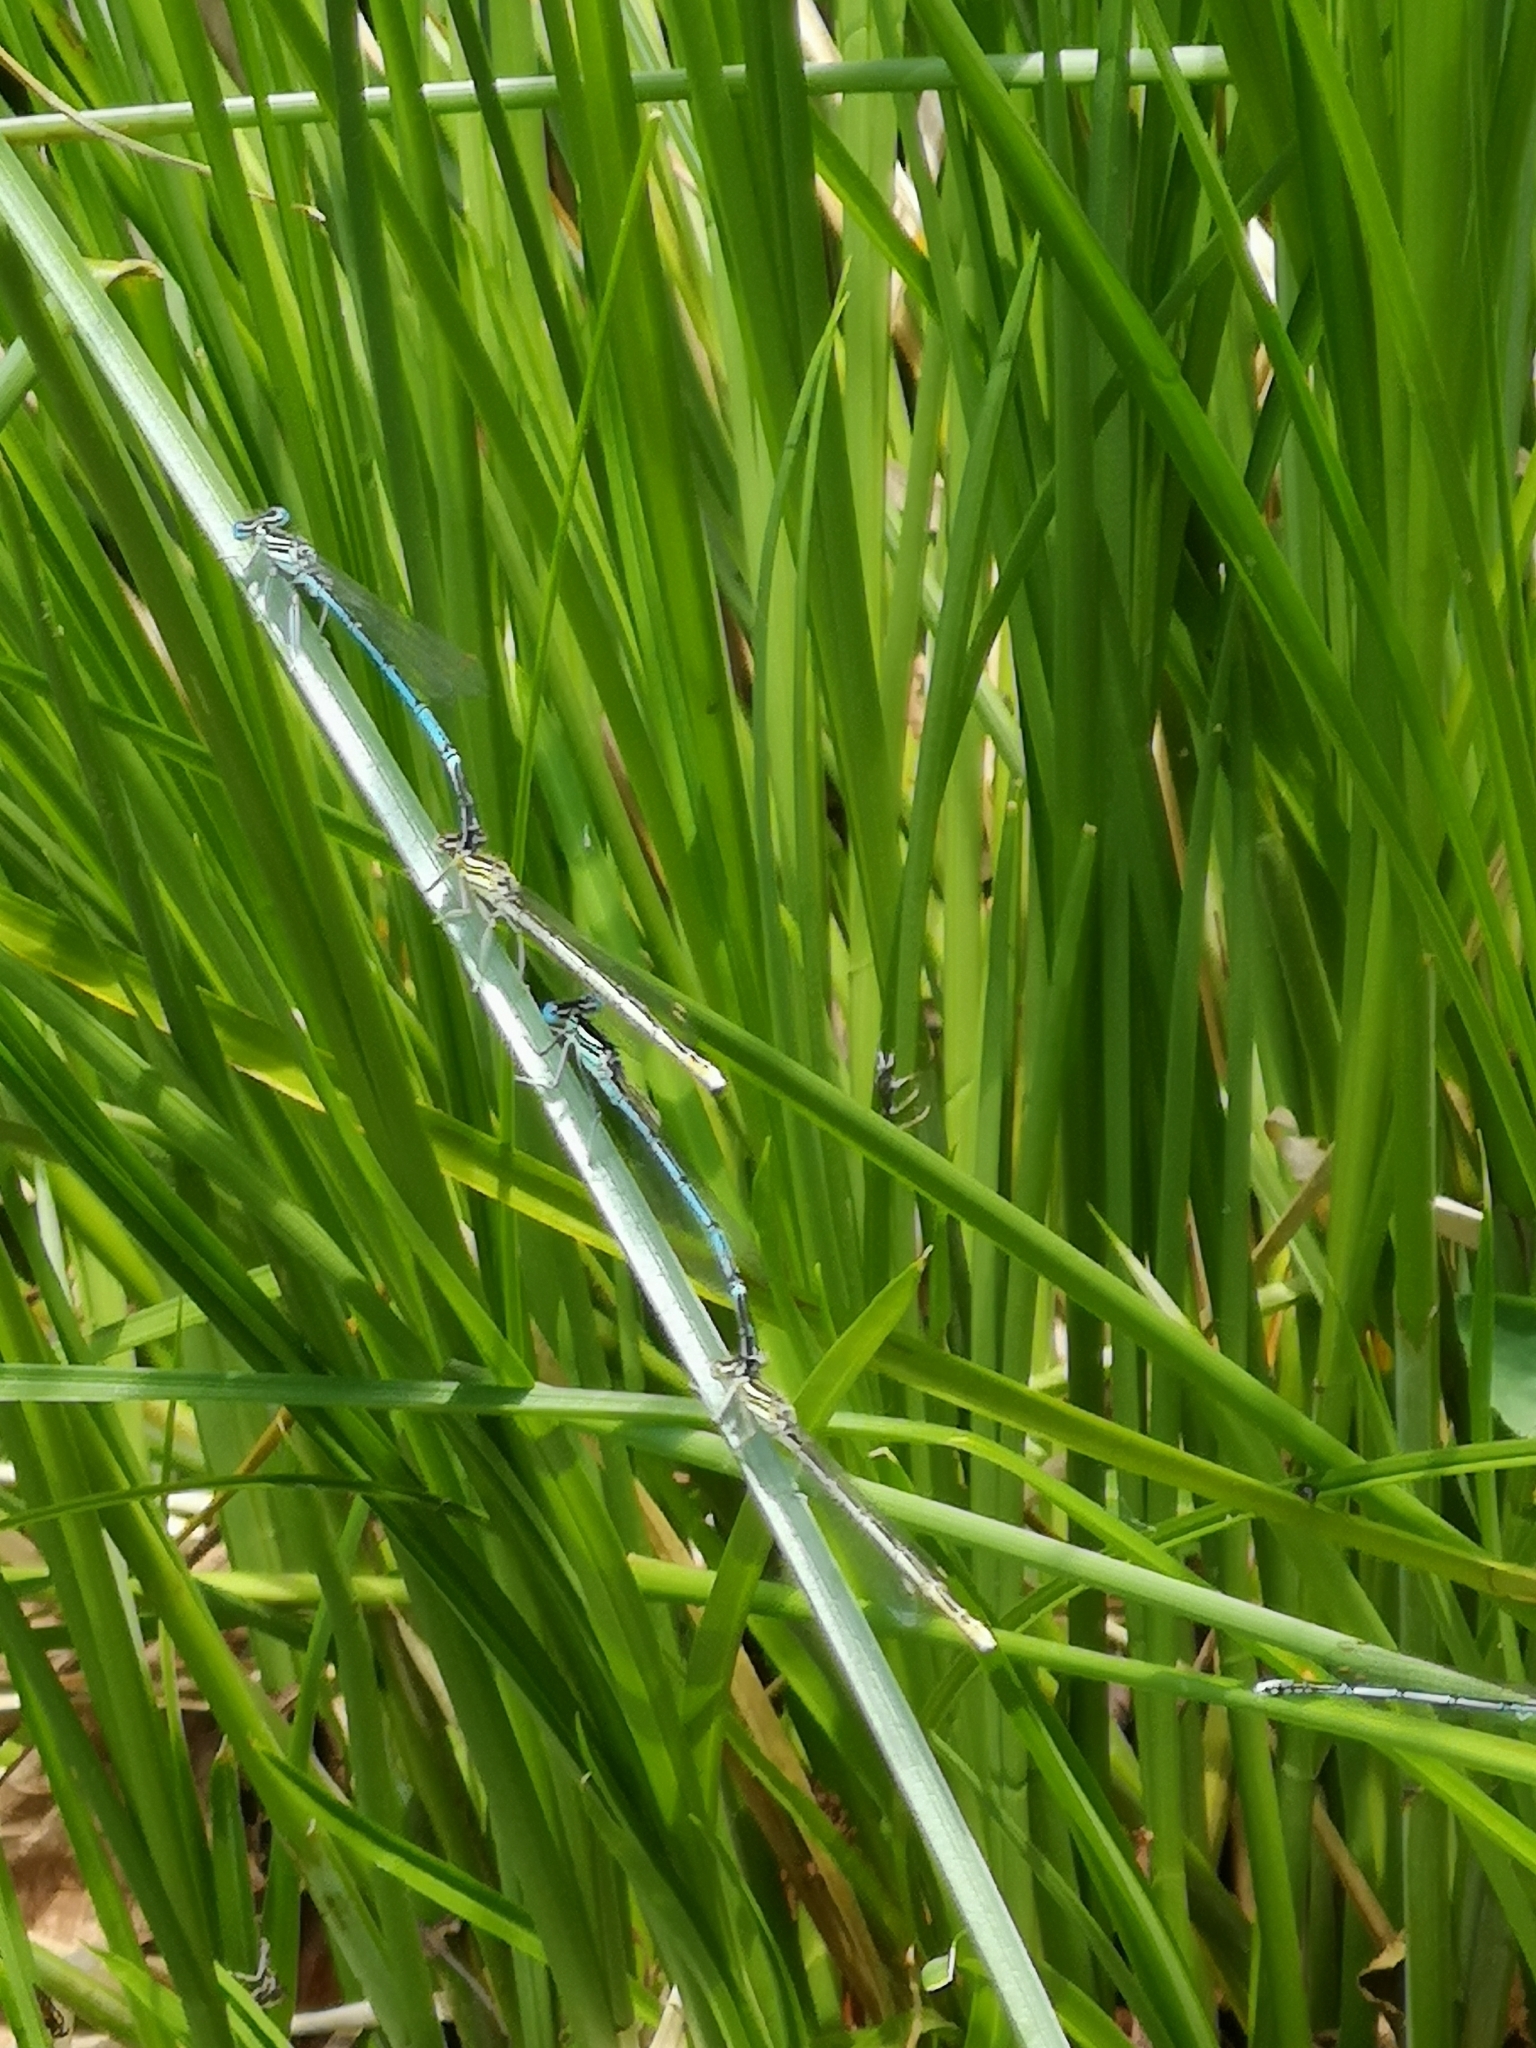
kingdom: Animalia
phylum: Arthropoda
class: Insecta
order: Odonata
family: Platycnemididae
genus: Platycnemis
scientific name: Platycnemis pennipes
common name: White-legged damselfly
